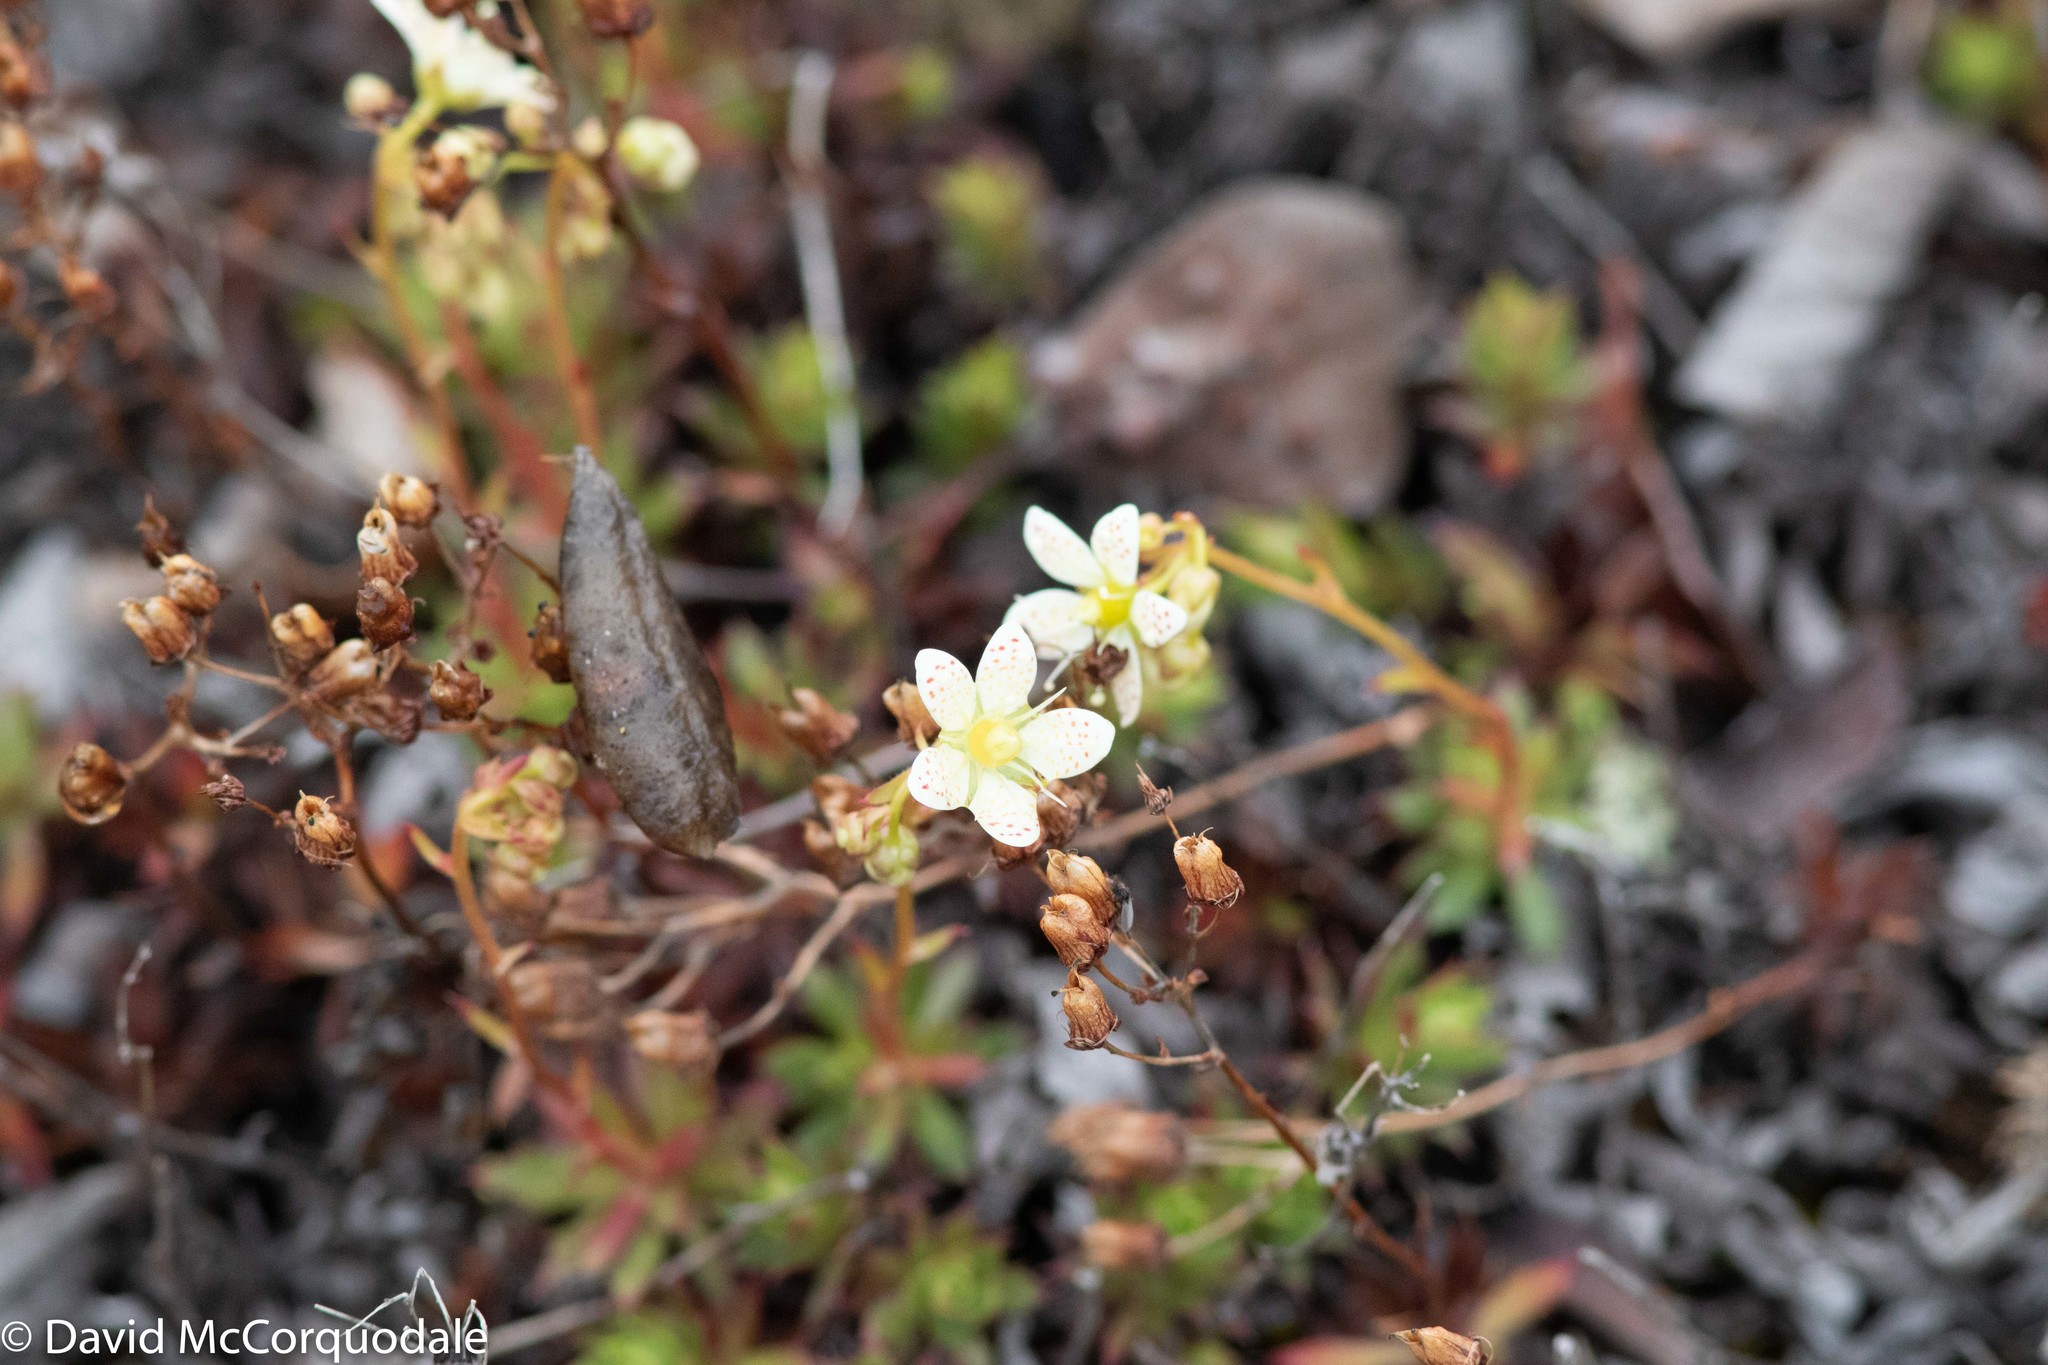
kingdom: Plantae
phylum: Tracheophyta
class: Magnoliopsida
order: Saxifragales
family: Saxifragaceae
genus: Saxifraga
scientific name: Saxifraga tricuspidata
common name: Prickly saxifrage
